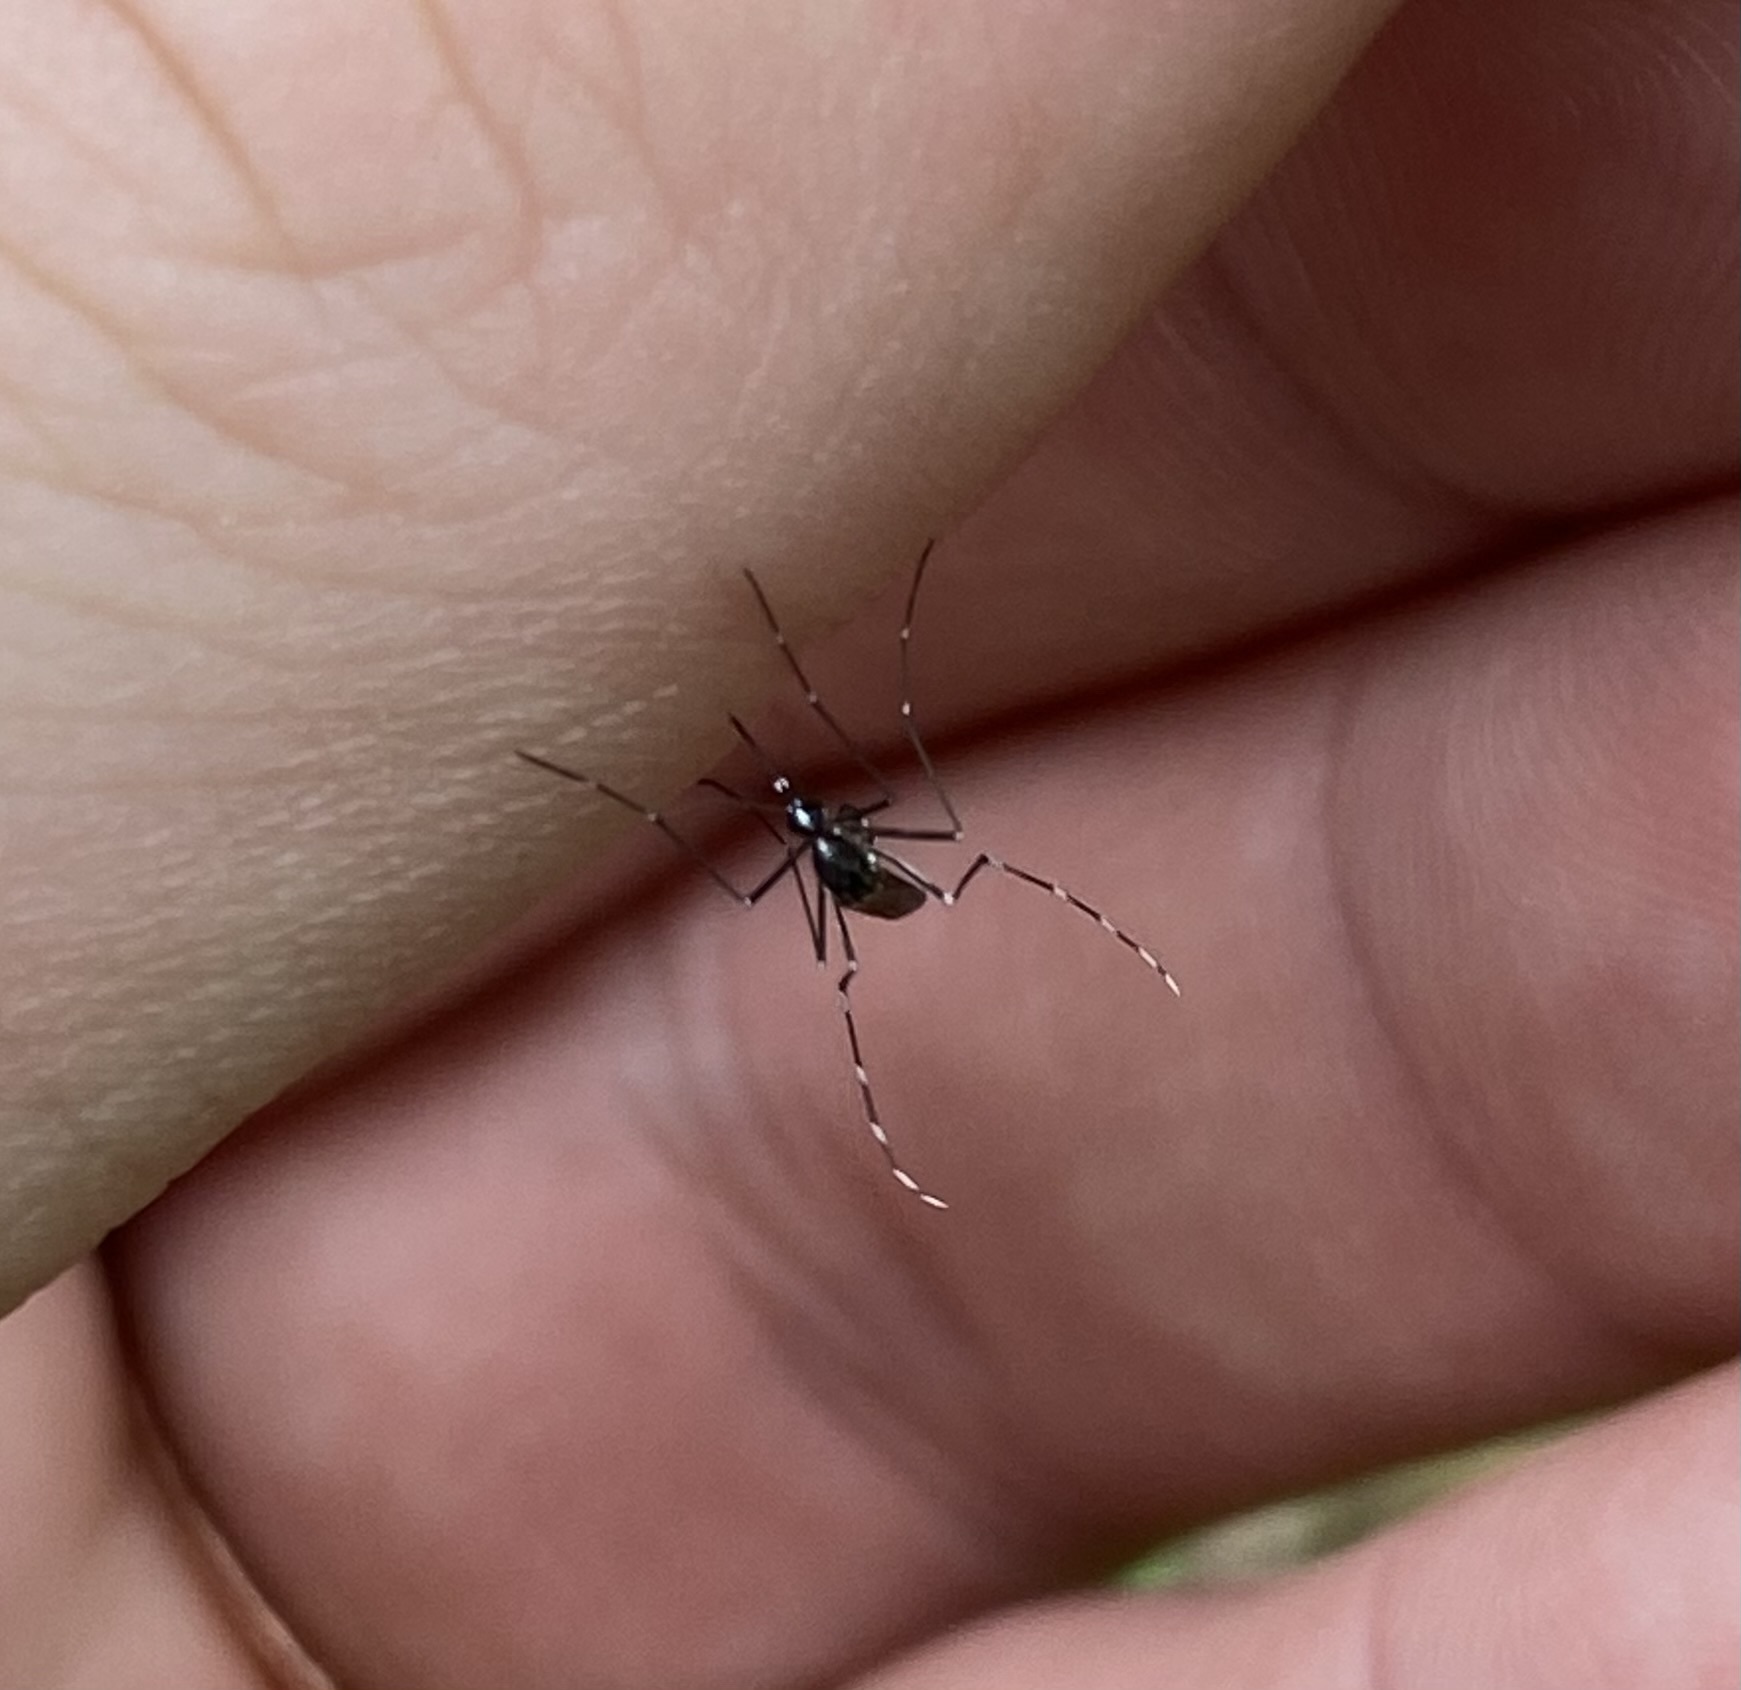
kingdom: Animalia
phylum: Arthropoda
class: Insecta
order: Diptera
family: Culicidae
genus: Aedes
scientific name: Aedes albopictus
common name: Tiger mosquito
